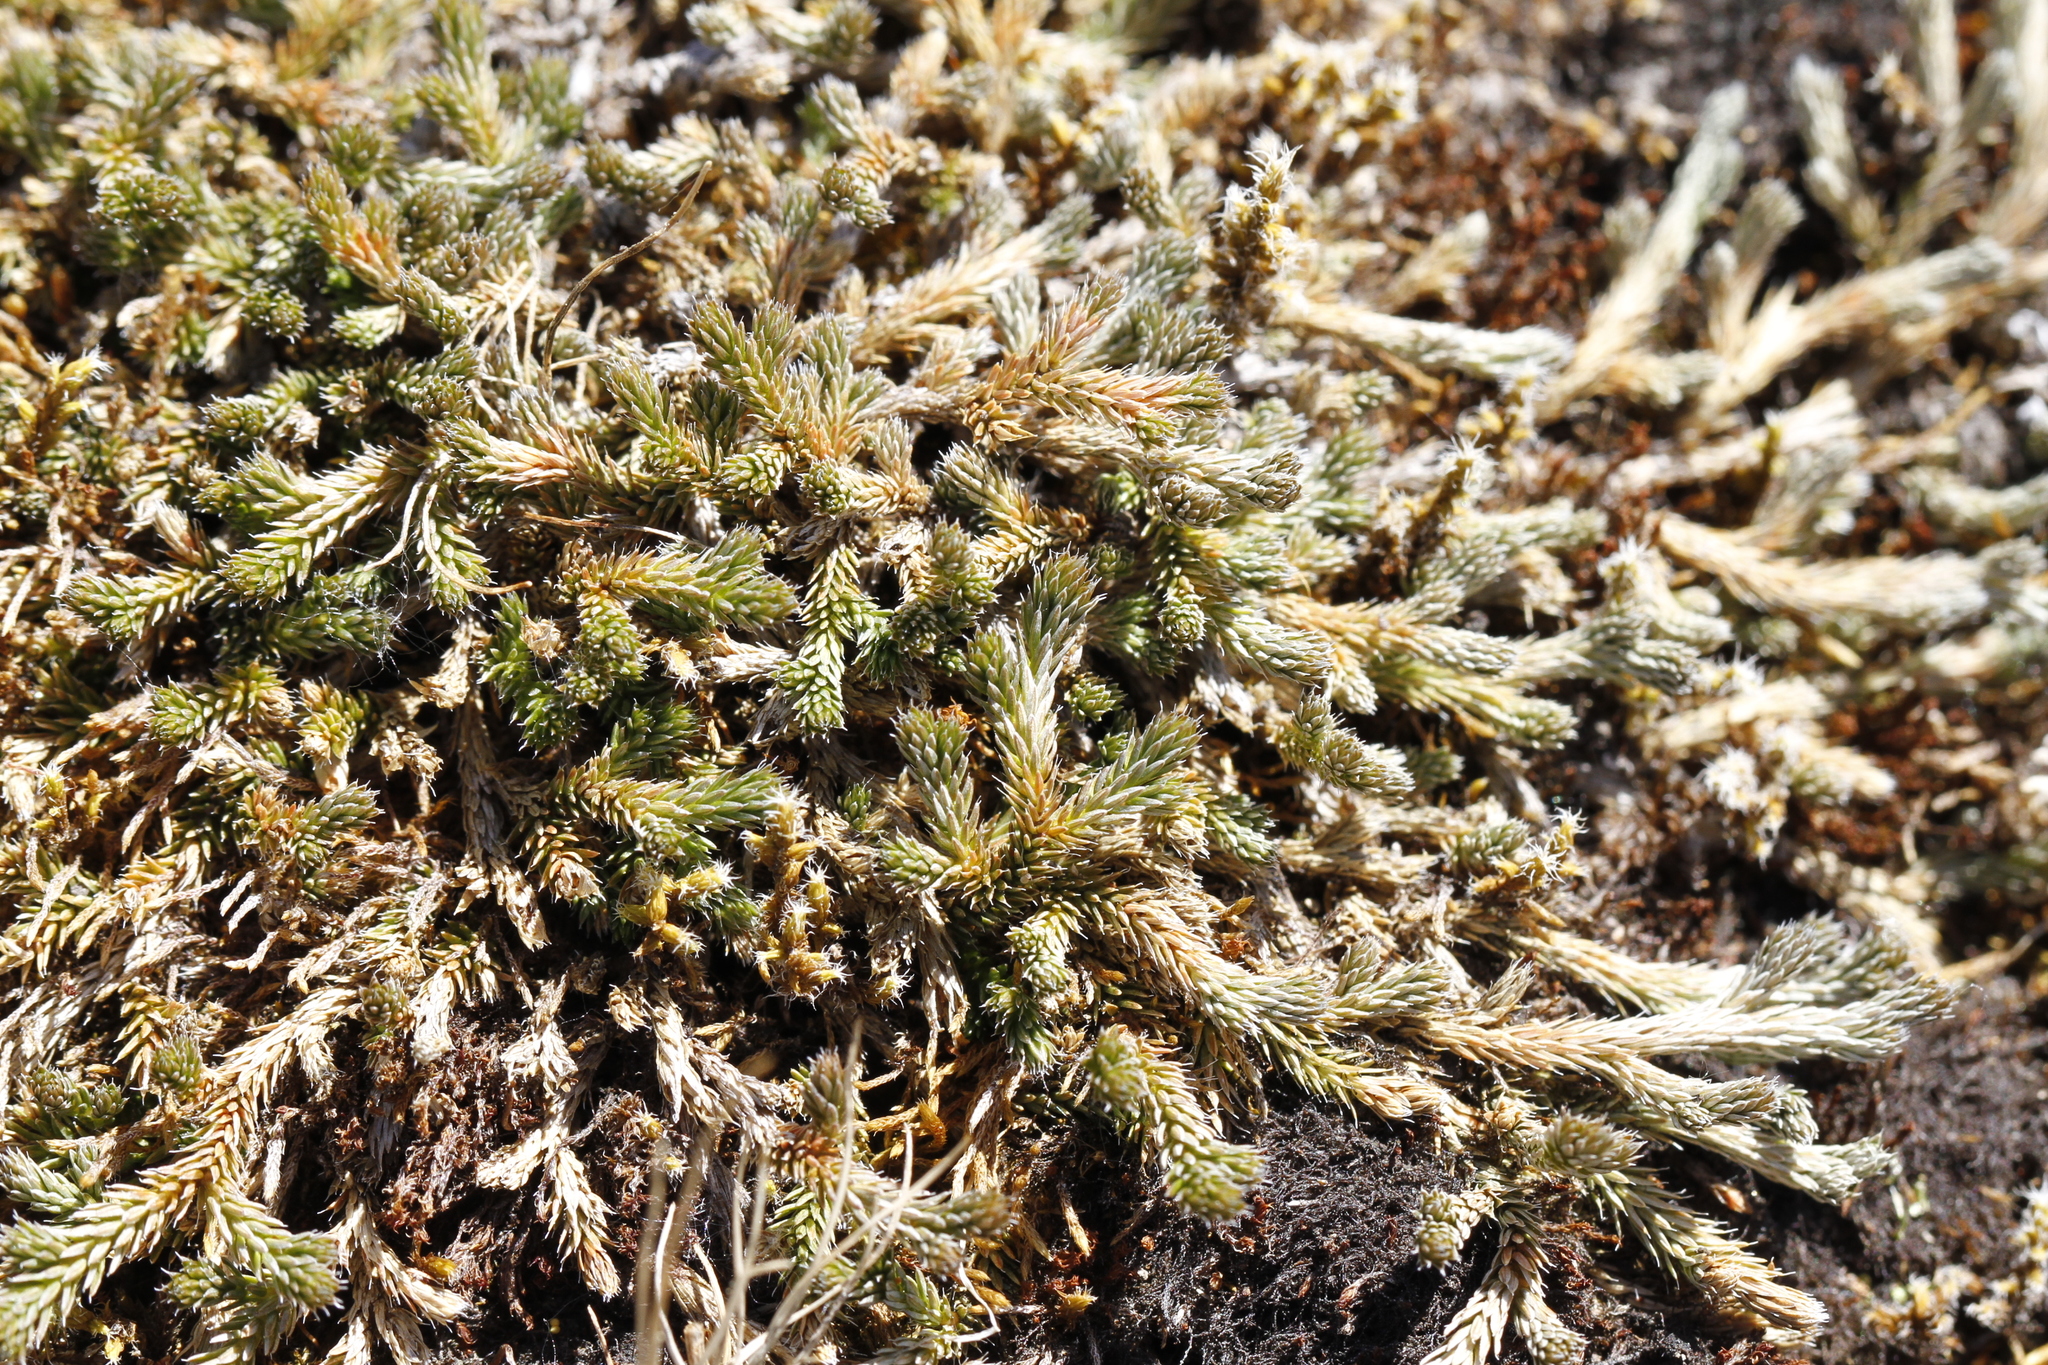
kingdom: Plantae
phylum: Tracheophyta
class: Lycopodiopsida
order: Selaginellales
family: Selaginellaceae
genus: Selaginella
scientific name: Selaginella wallacei
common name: Wallace's selaginella
